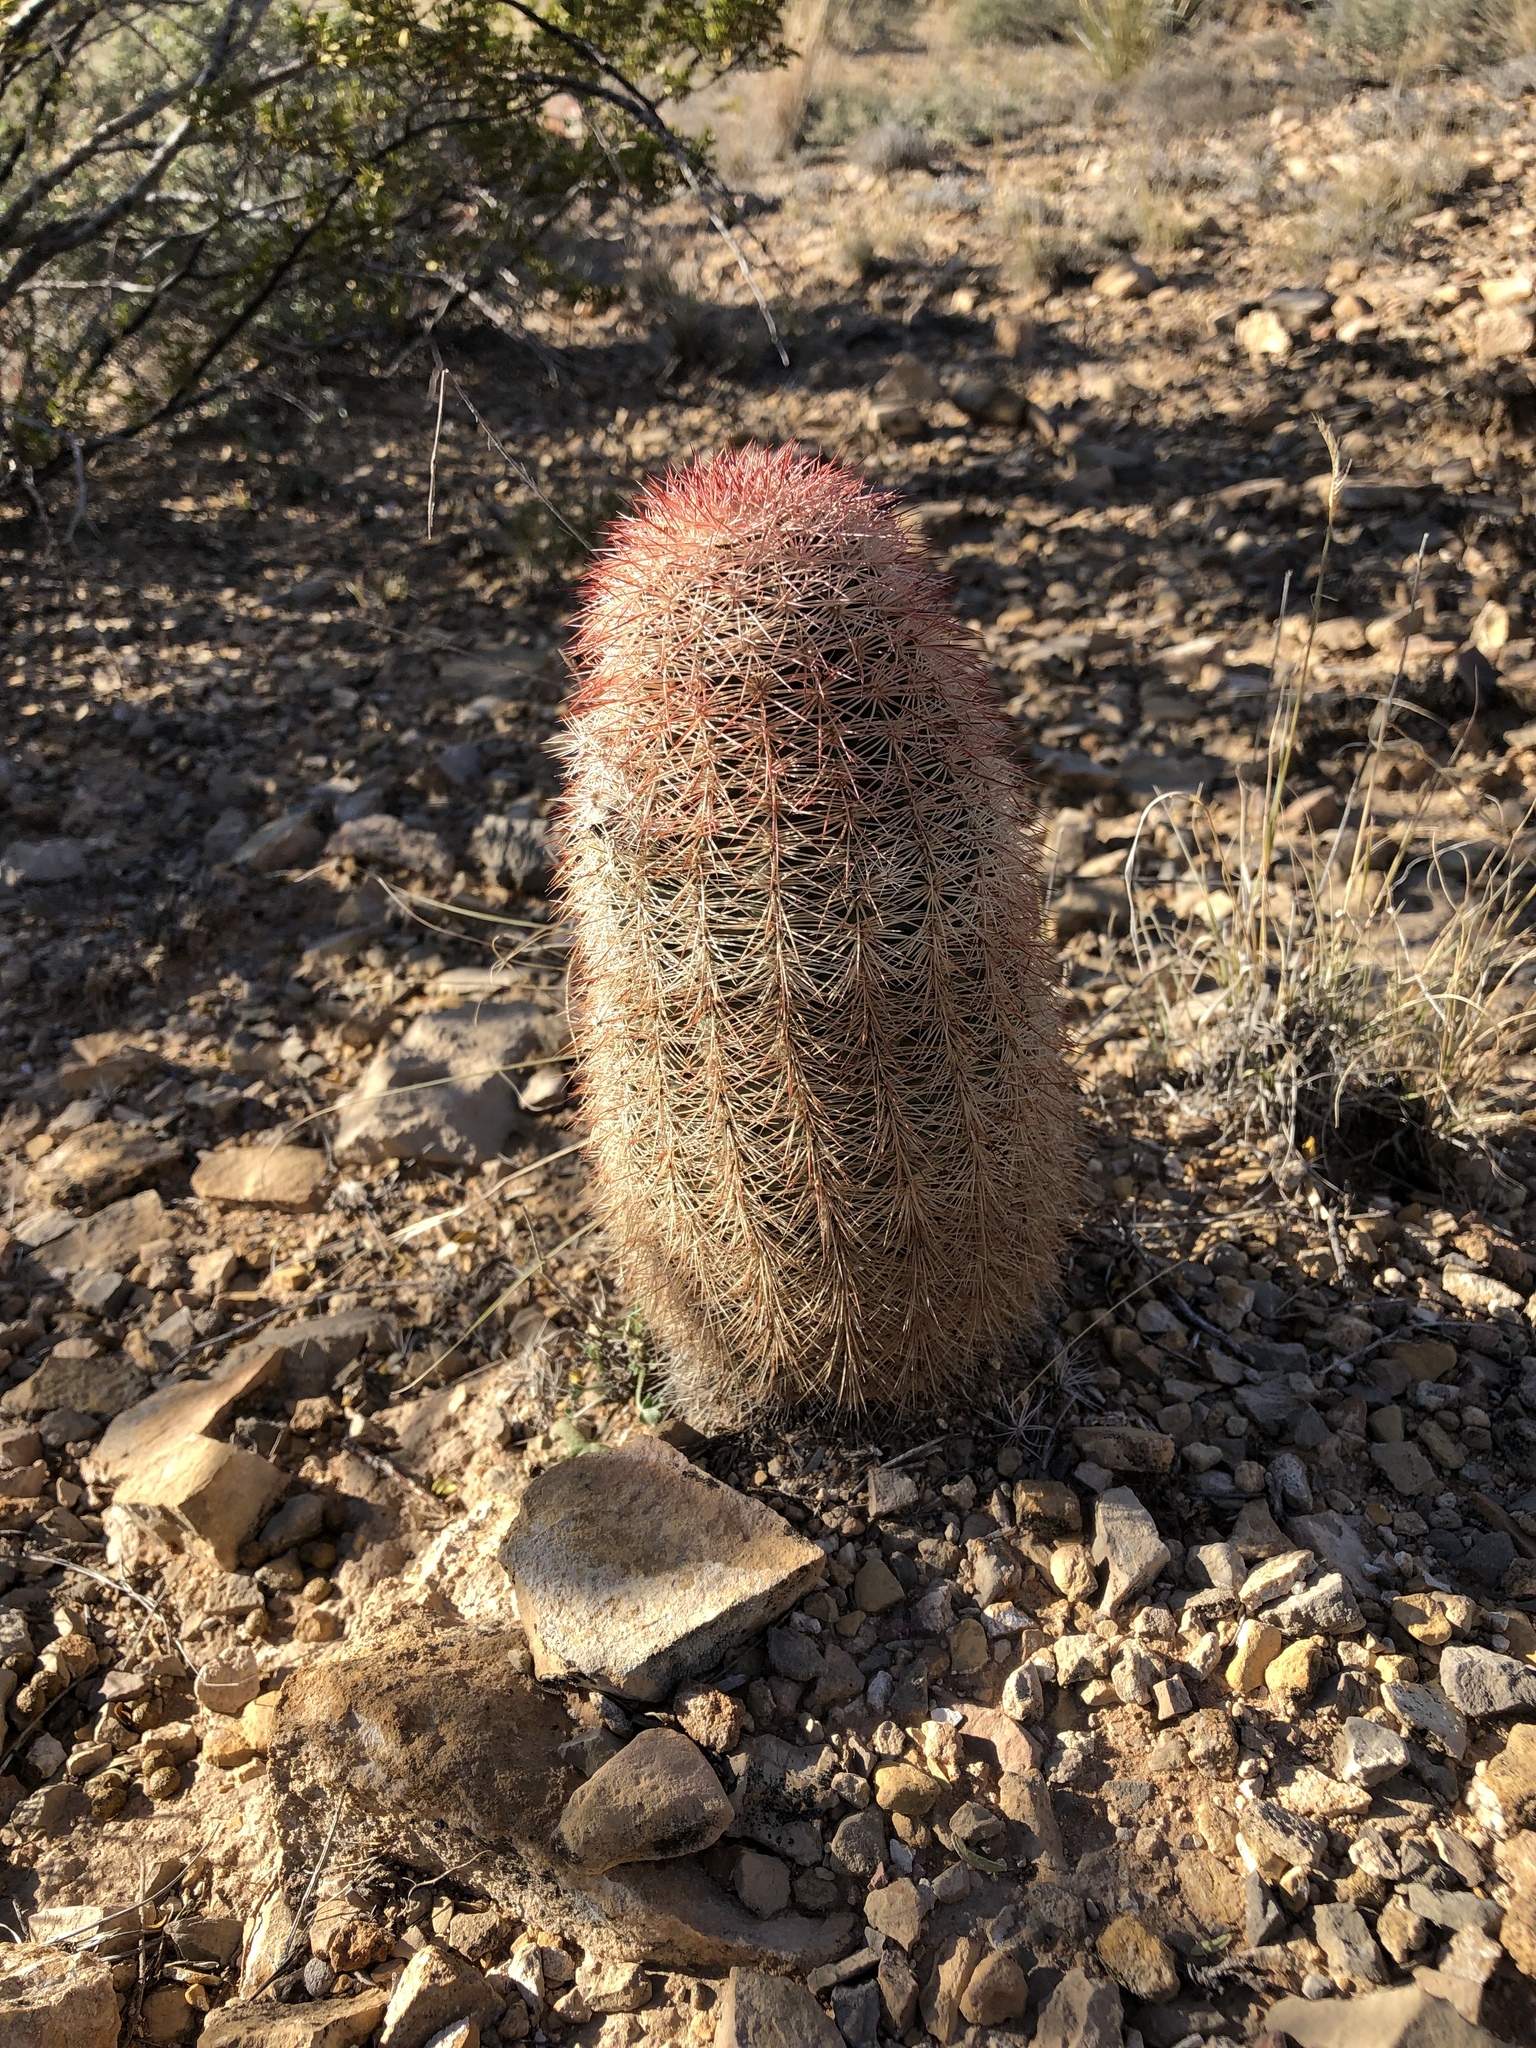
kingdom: Plantae
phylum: Tracheophyta
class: Magnoliopsida
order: Caryophyllales
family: Cactaceae
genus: Echinocereus
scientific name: Echinocereus dasyacanthus
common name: Spiny hedgehog cactus
